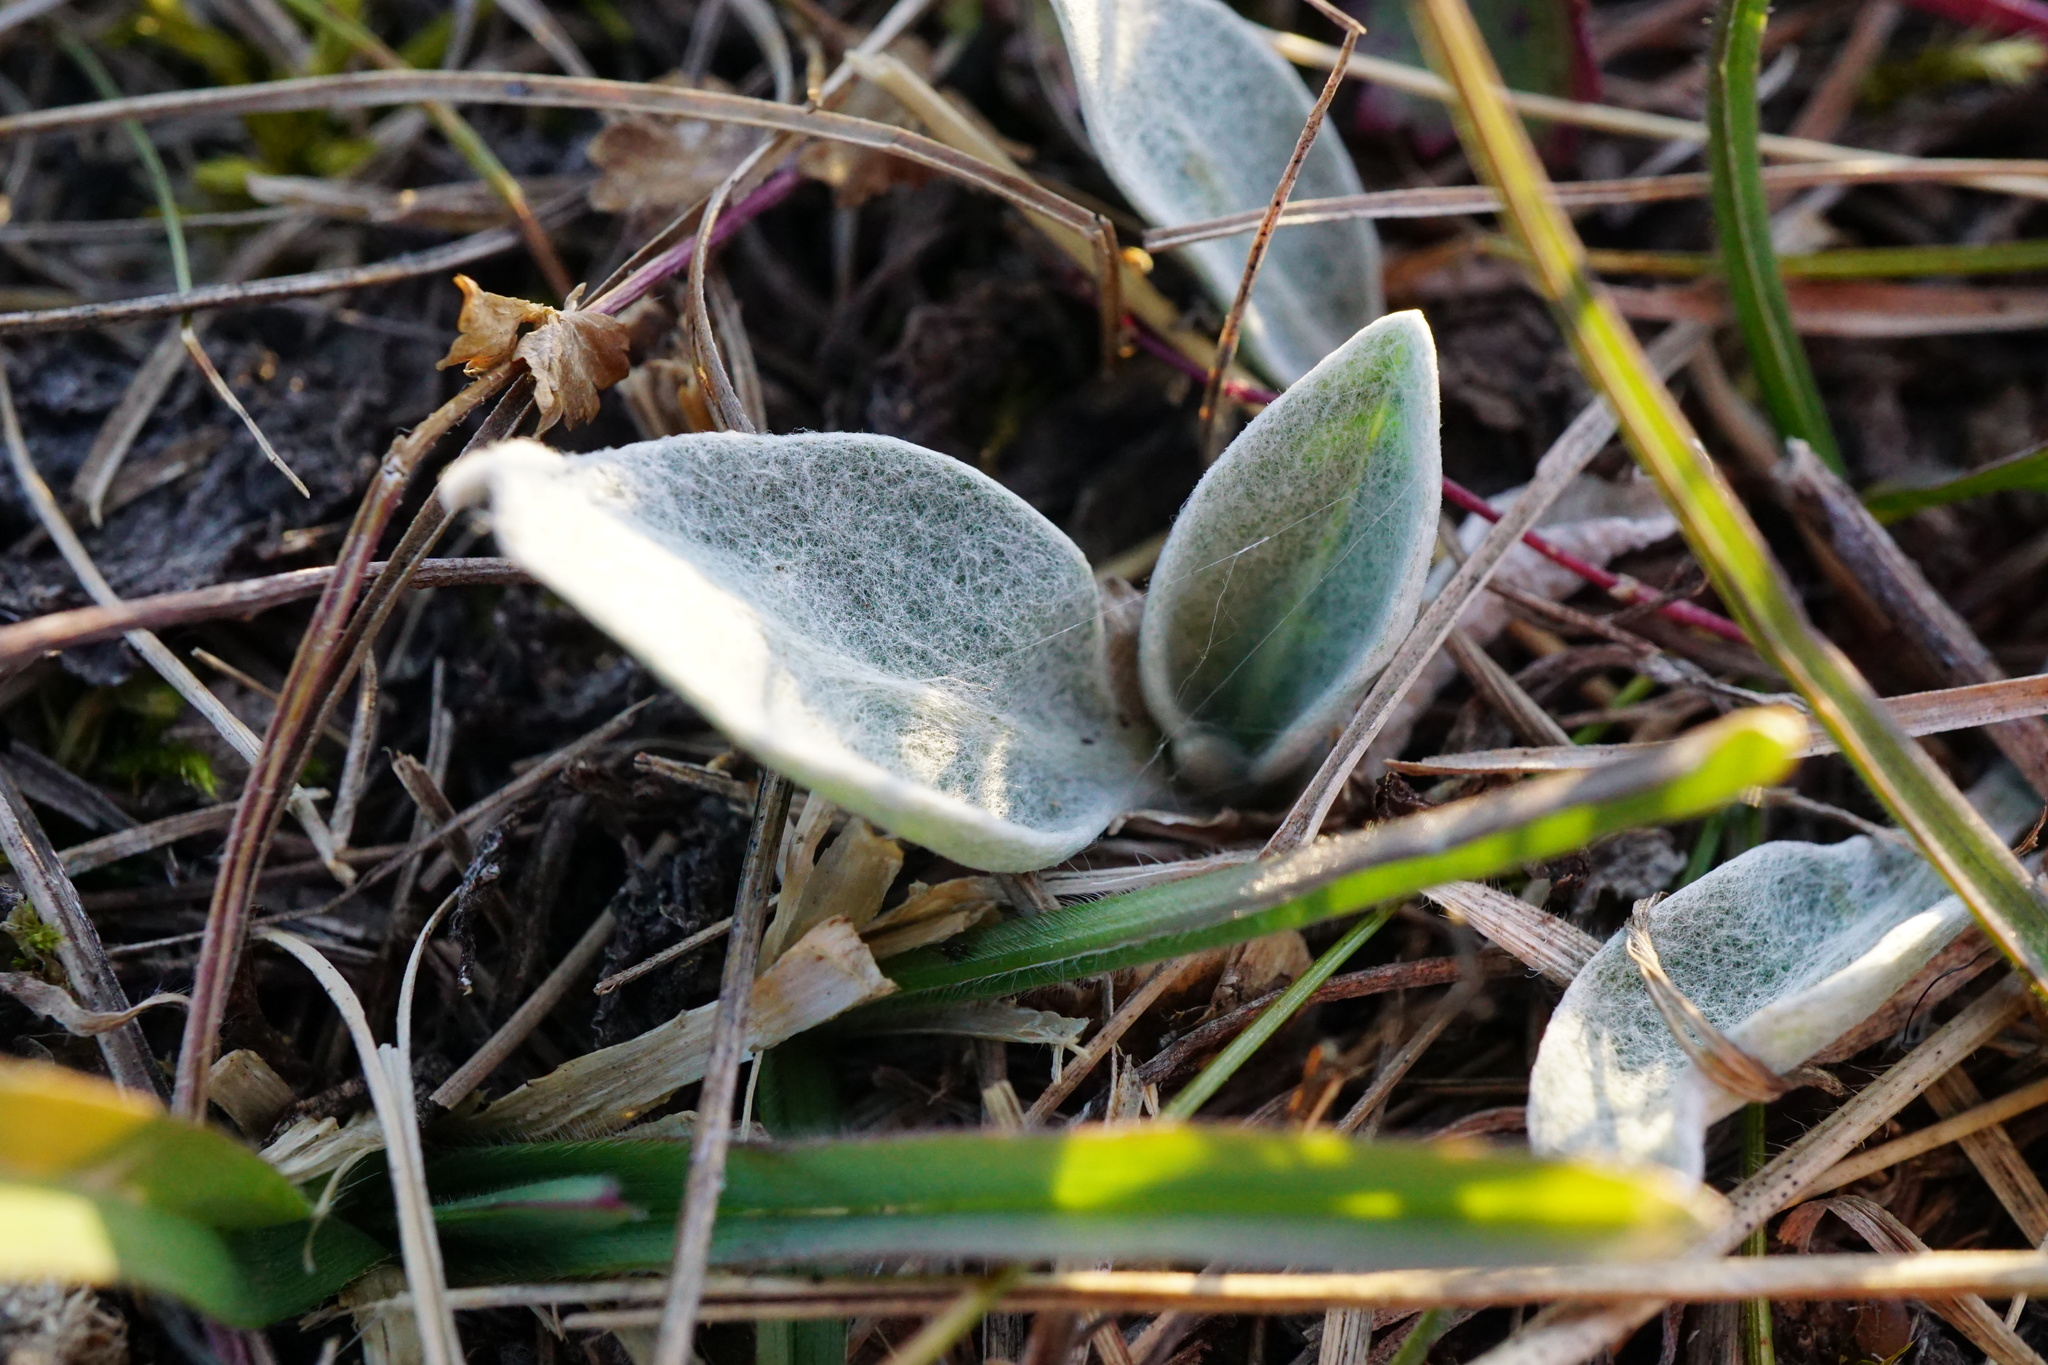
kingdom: Plantae
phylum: Tracheophyta
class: Magnoliopsida
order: Asterales
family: Asteraceae
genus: Centaurea
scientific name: Centaurea triumfettii
